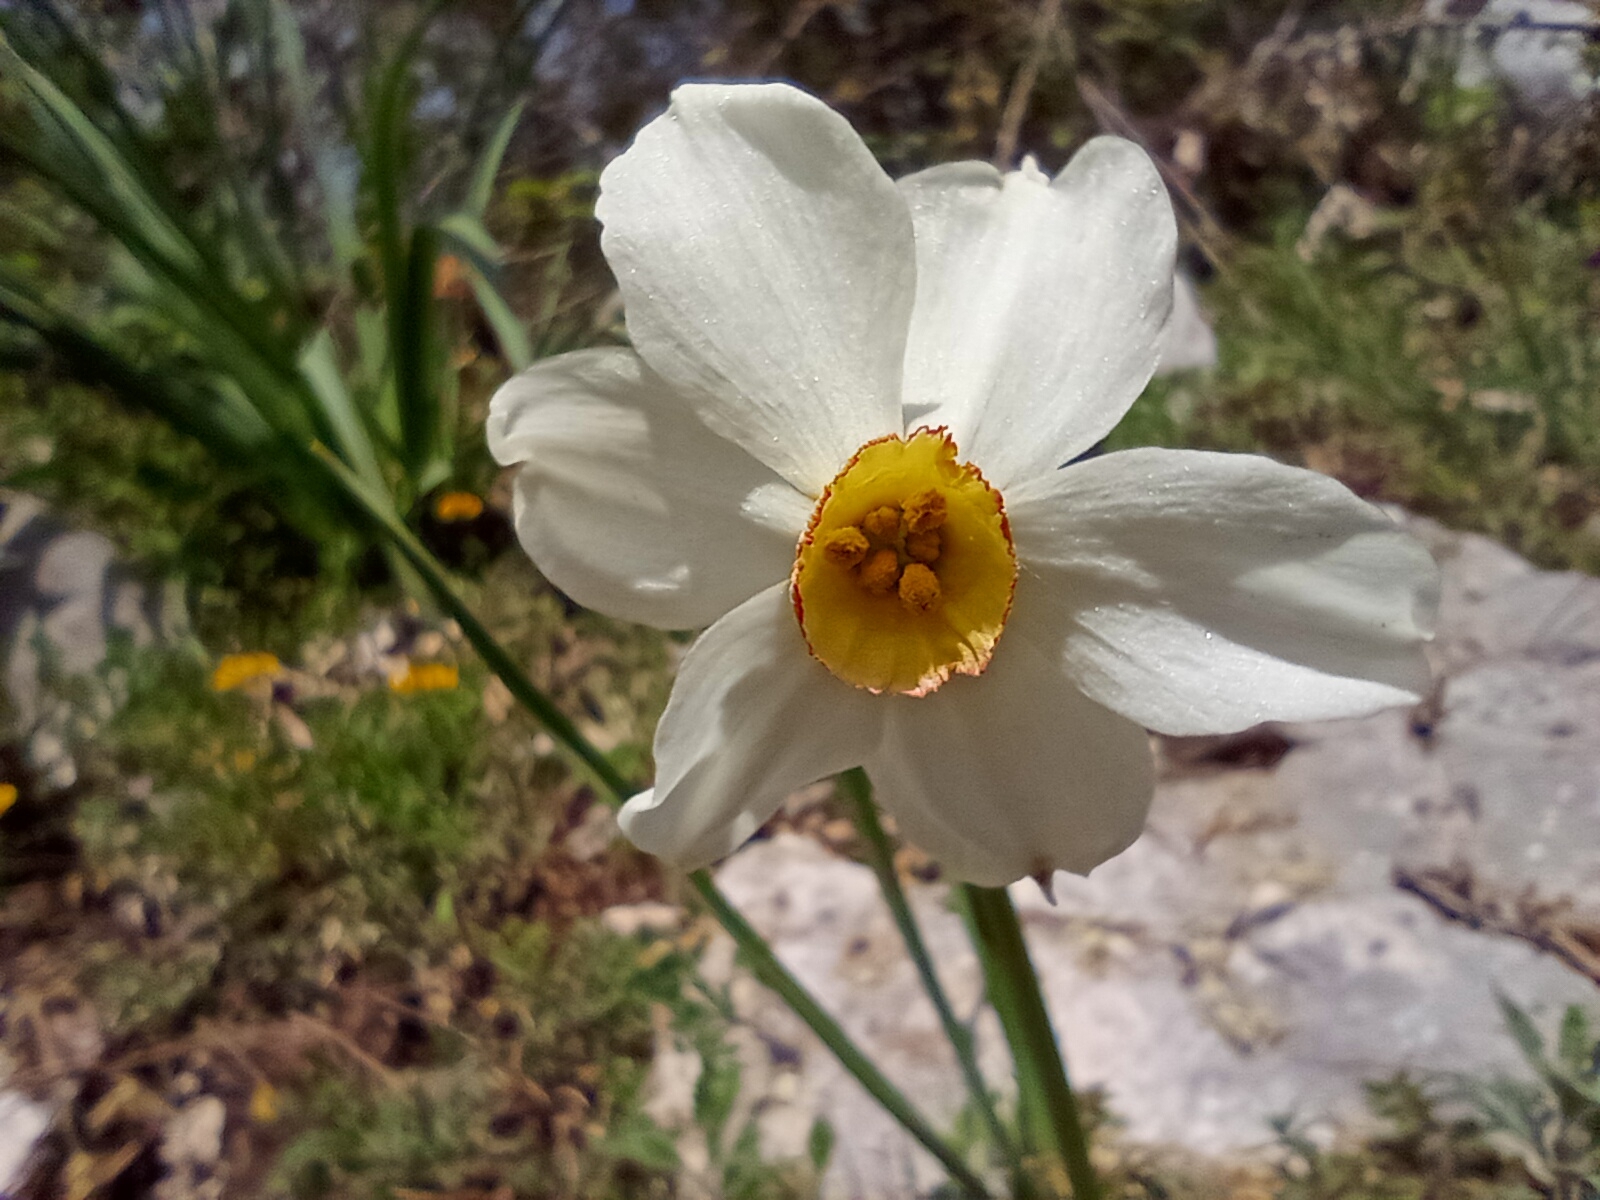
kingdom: Plantae
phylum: Tracheophyta
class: Liliopsida
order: Asparagales
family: Amaryllidaceae
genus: Narcissus
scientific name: Narcissus poeticus
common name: Pheasant's-eye daffodil
